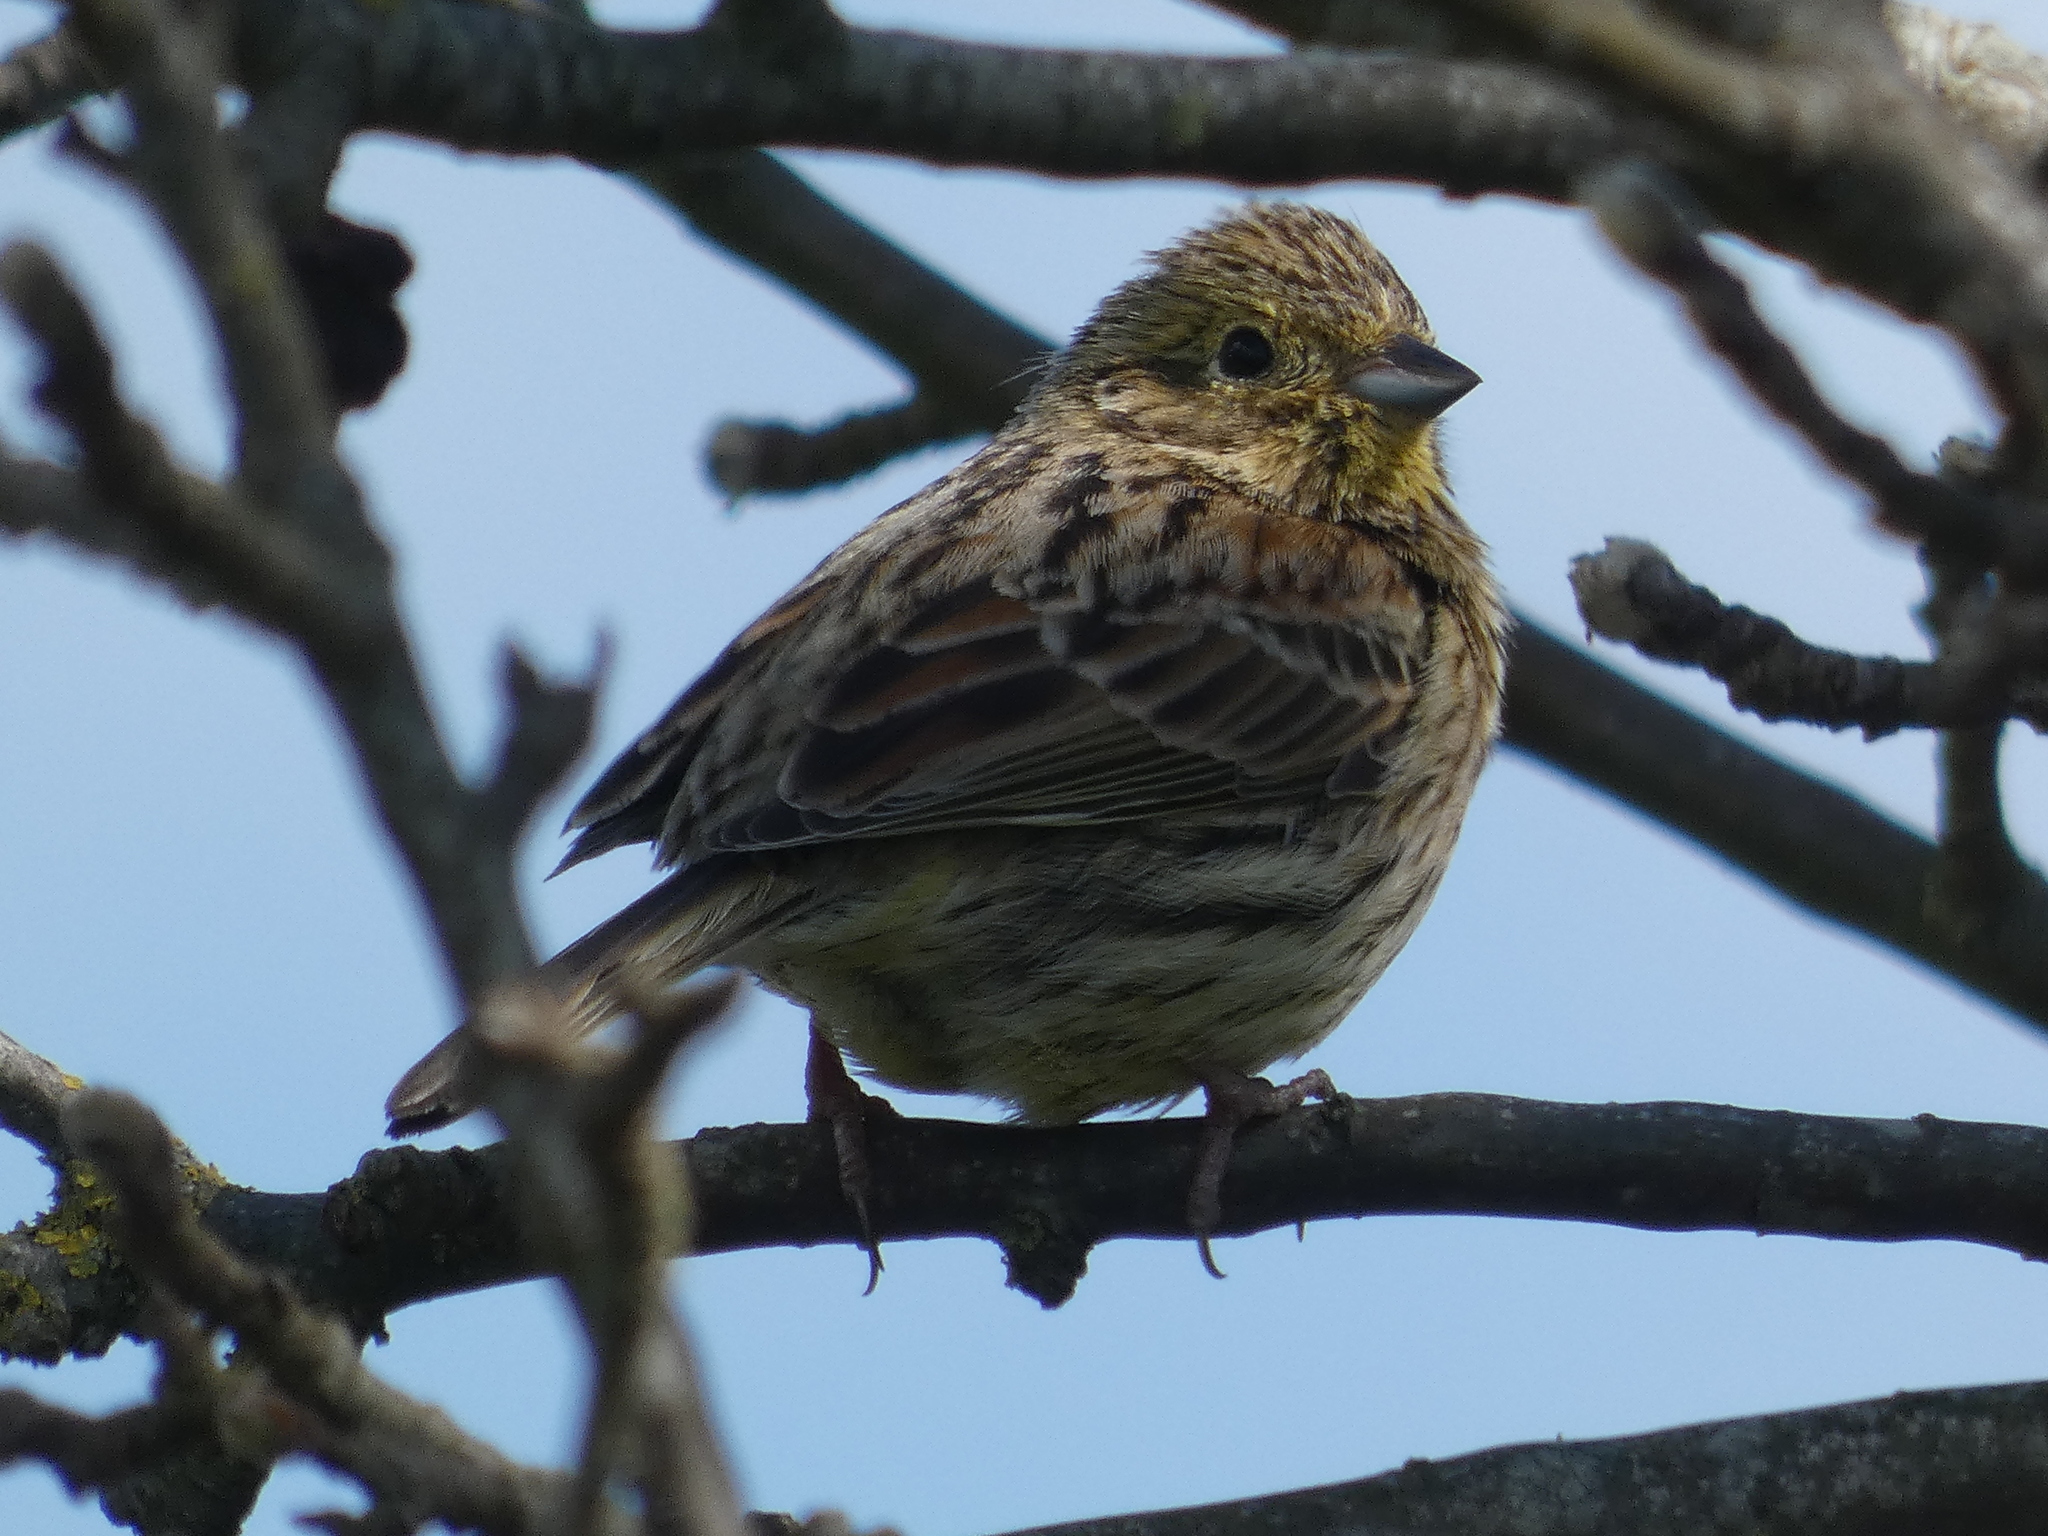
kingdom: Animalia
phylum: Chordata
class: Aves
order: Passeriformes
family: Emberizidae
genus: Emberiza
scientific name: Emberiza cirlus
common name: Cirl bunting
